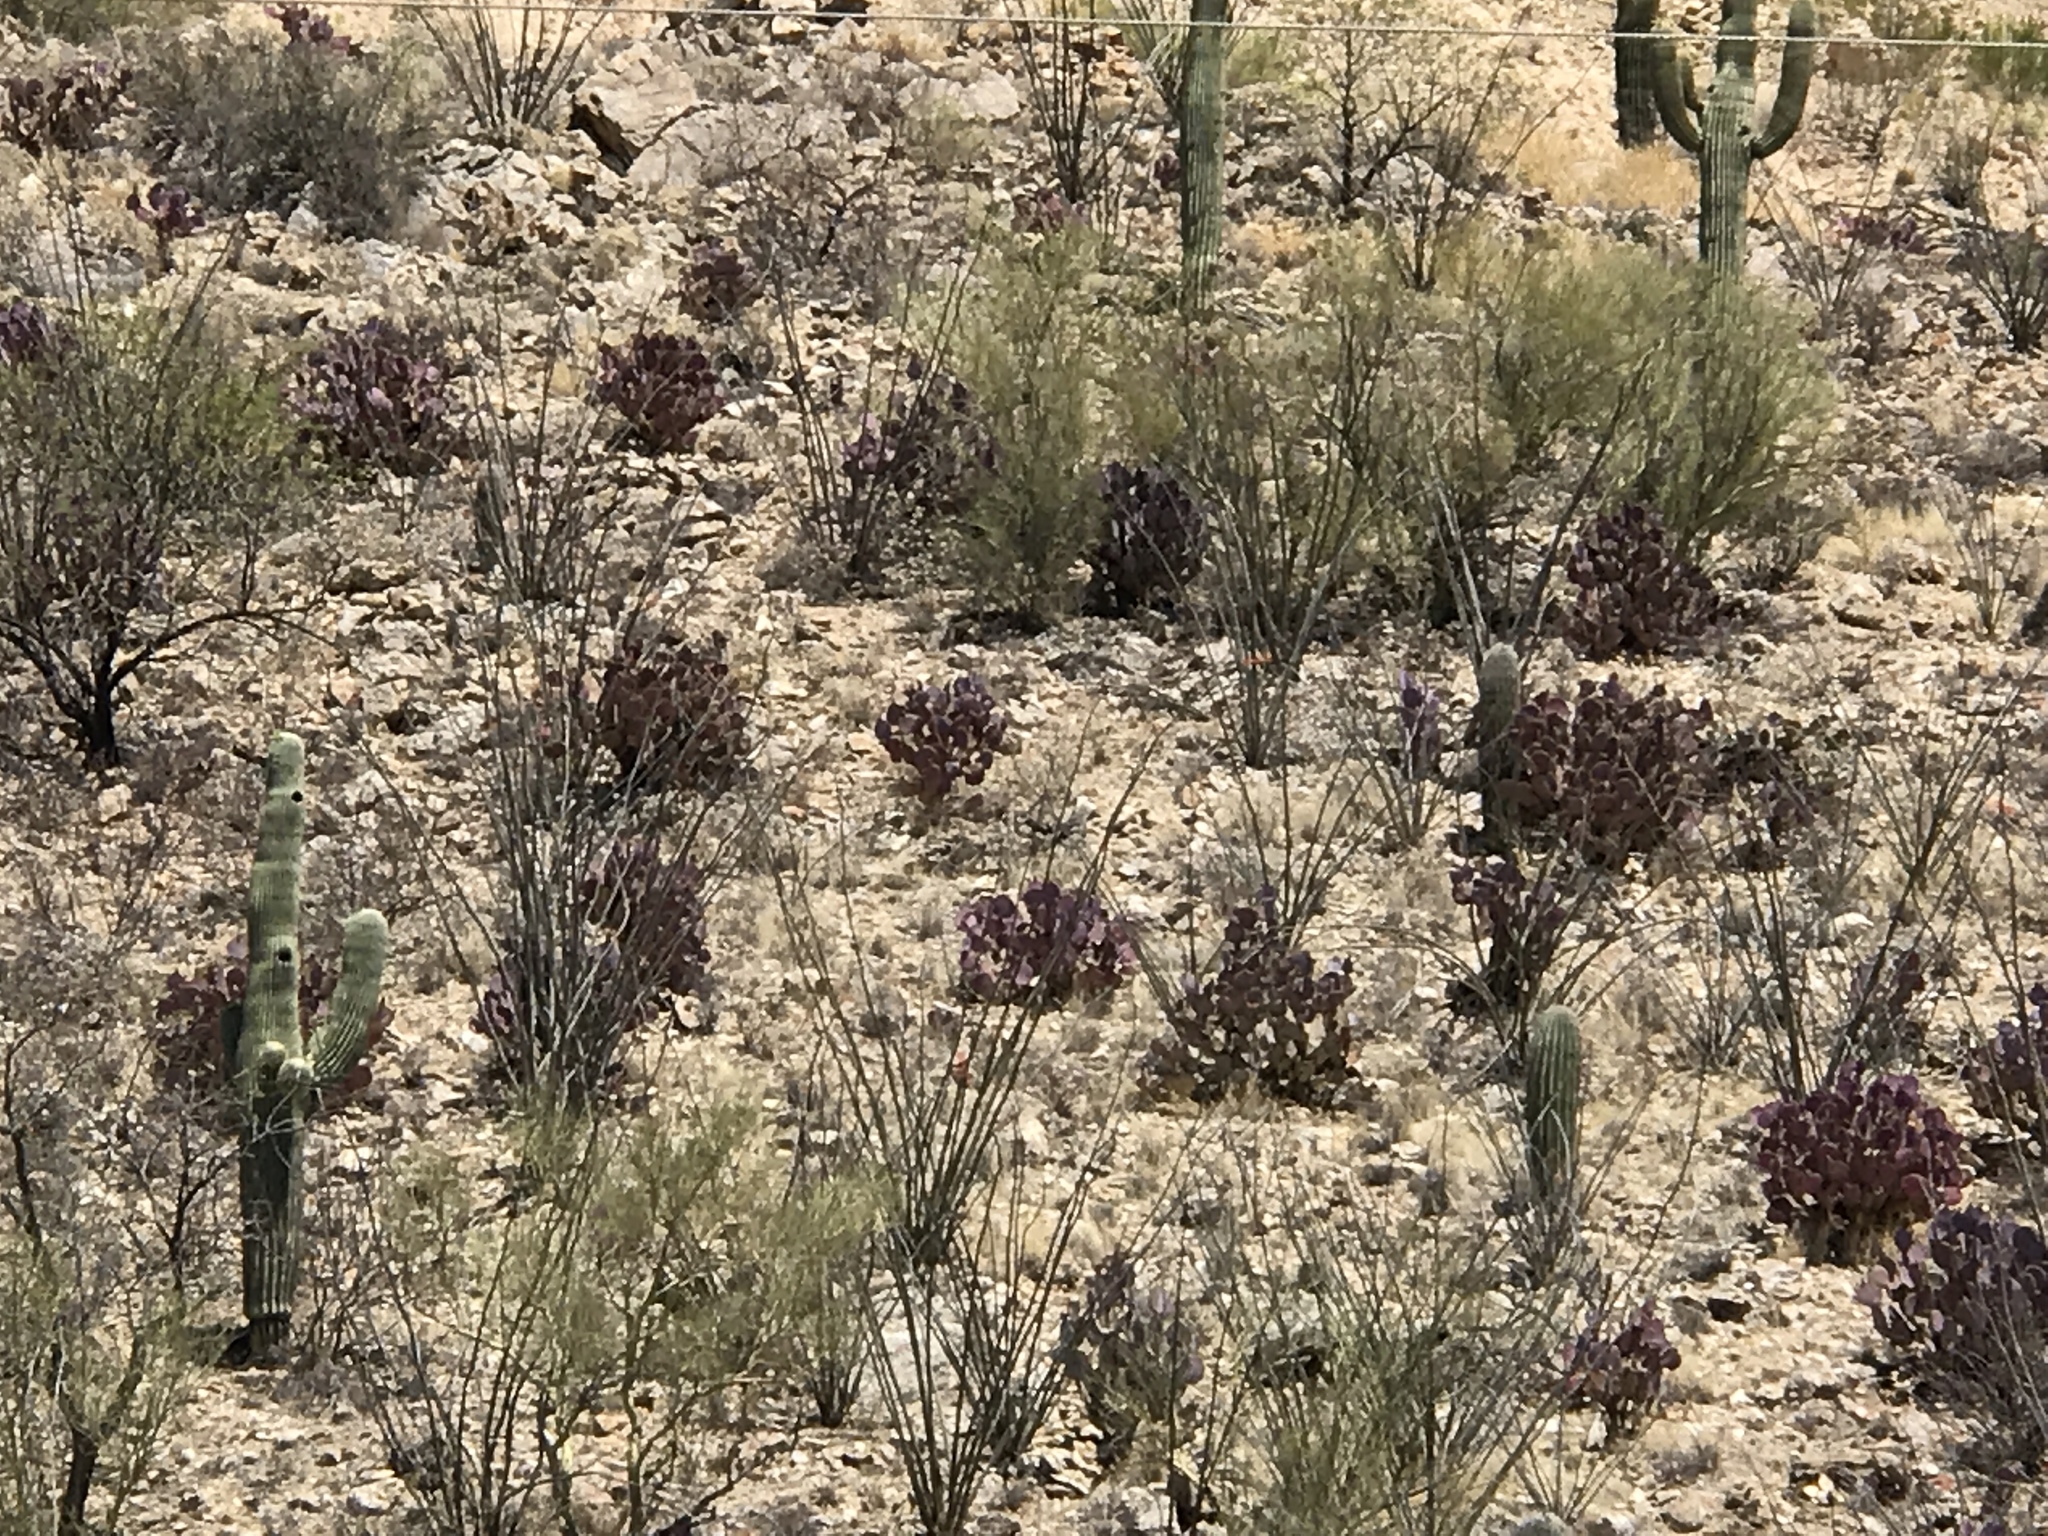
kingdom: Plantae
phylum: Tracheophyta
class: Magnoliopsida
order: Caryophyllales
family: Cactaceae
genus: Carnegiea
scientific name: Carnegiea gigantea
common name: Saguaro
